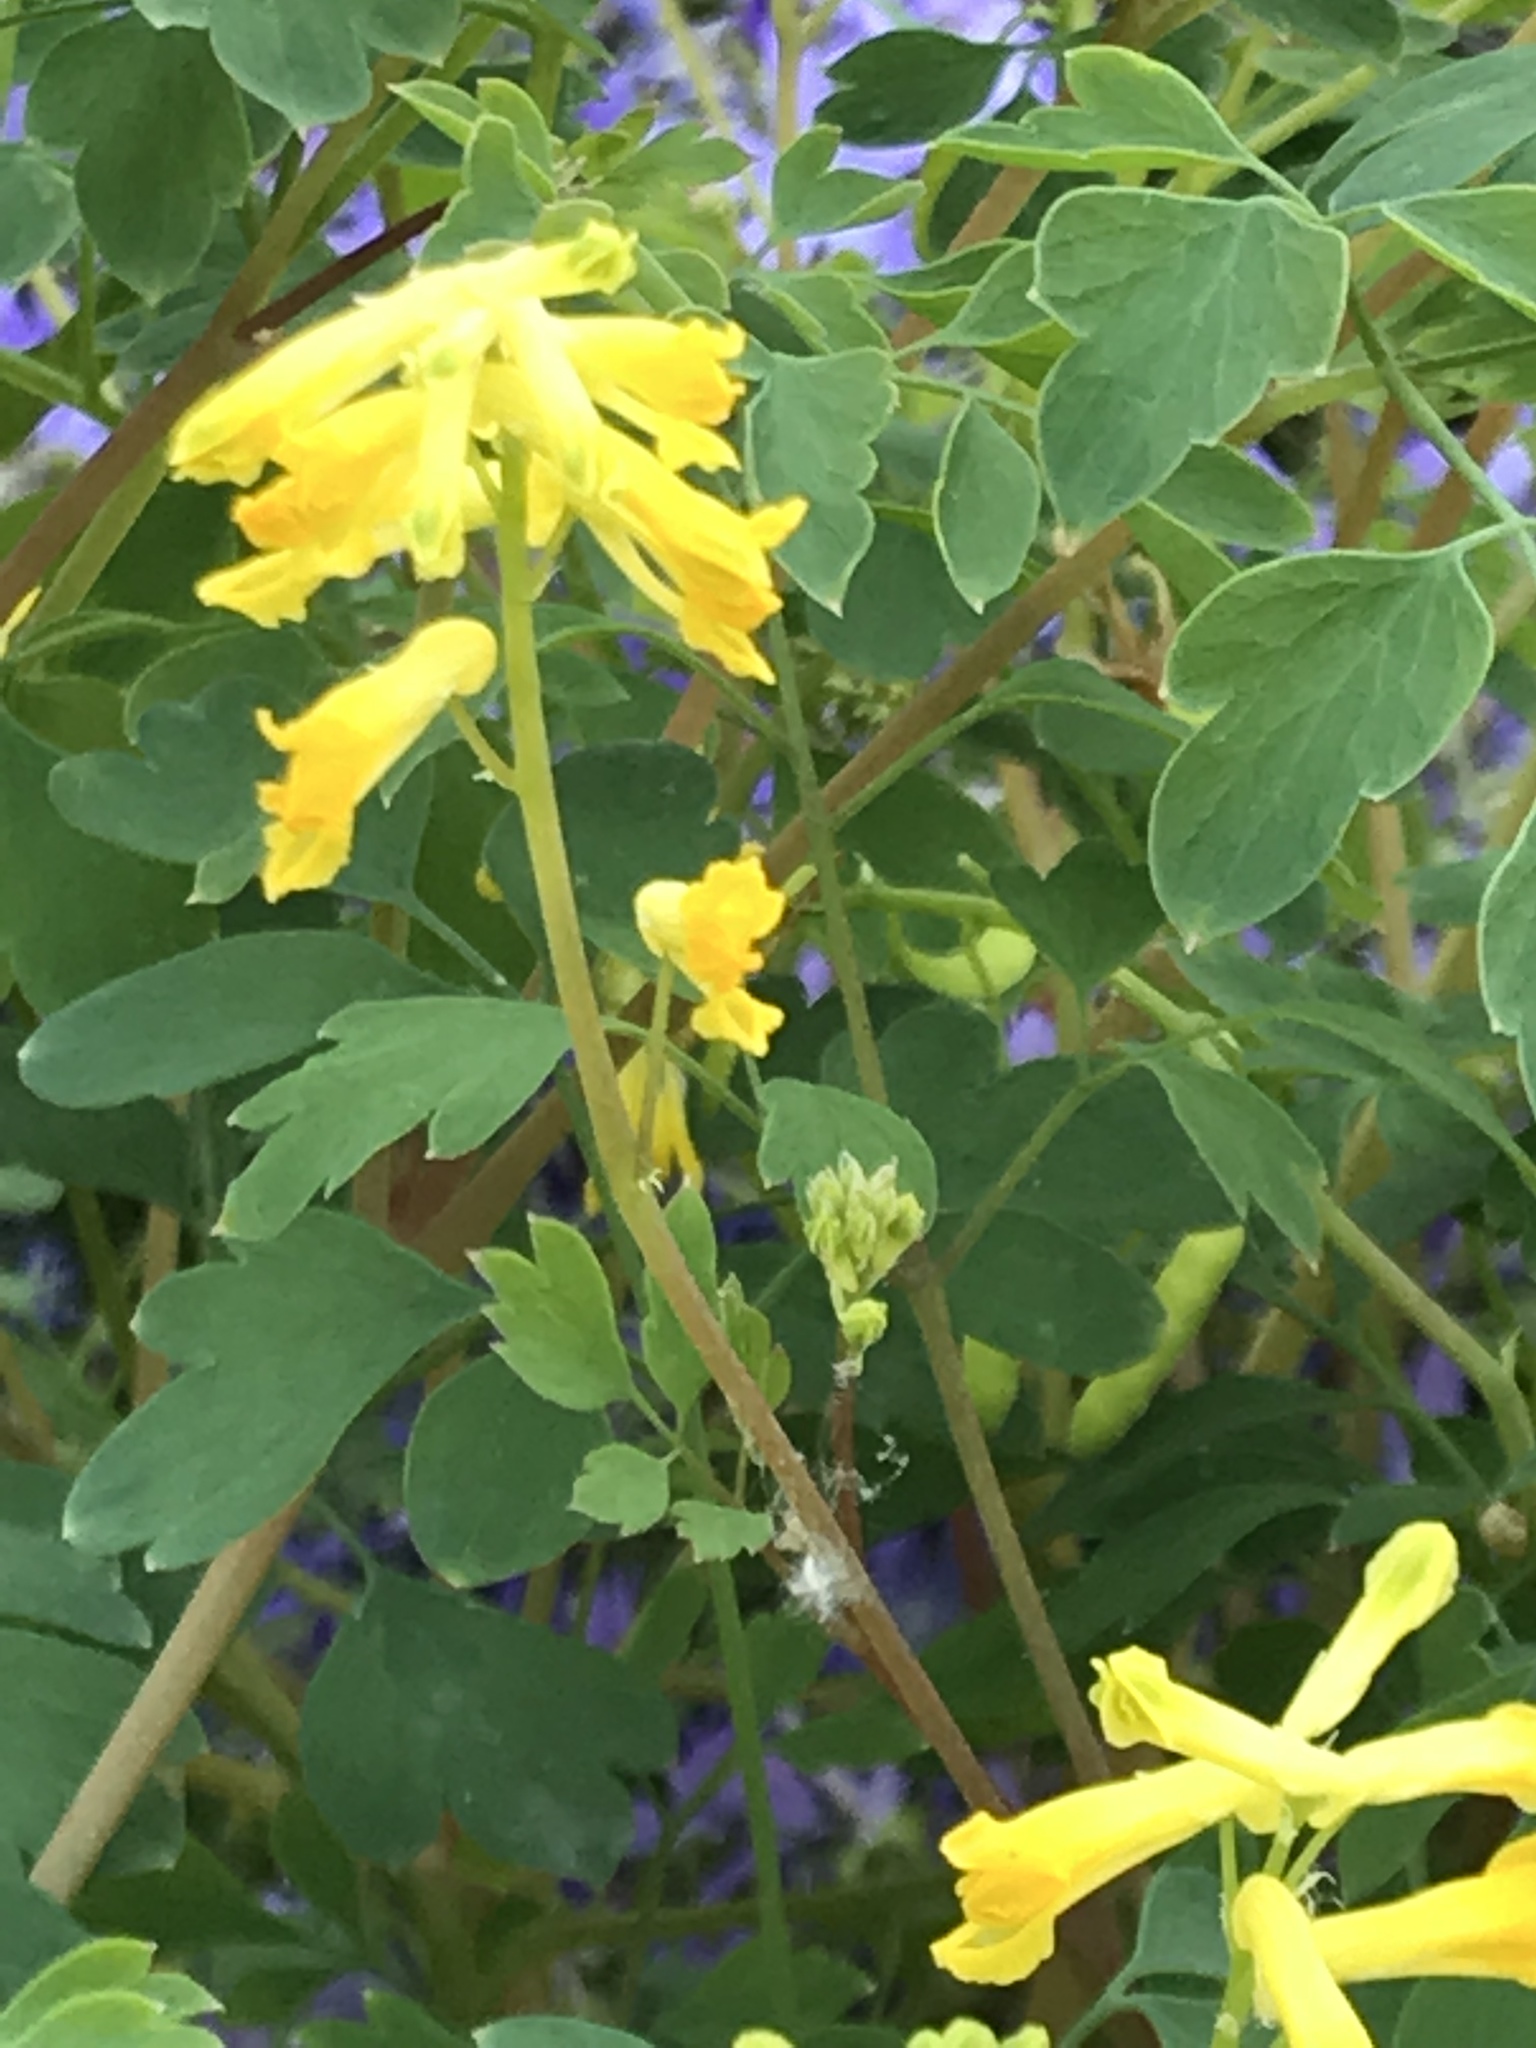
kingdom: Plantae
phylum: Tracheophyta
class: Magnoliopsida
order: Ranunculales
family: Papaveraceae
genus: Pseudofumaria
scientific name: Pseudofumaria lutea
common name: Yellow corydalis
